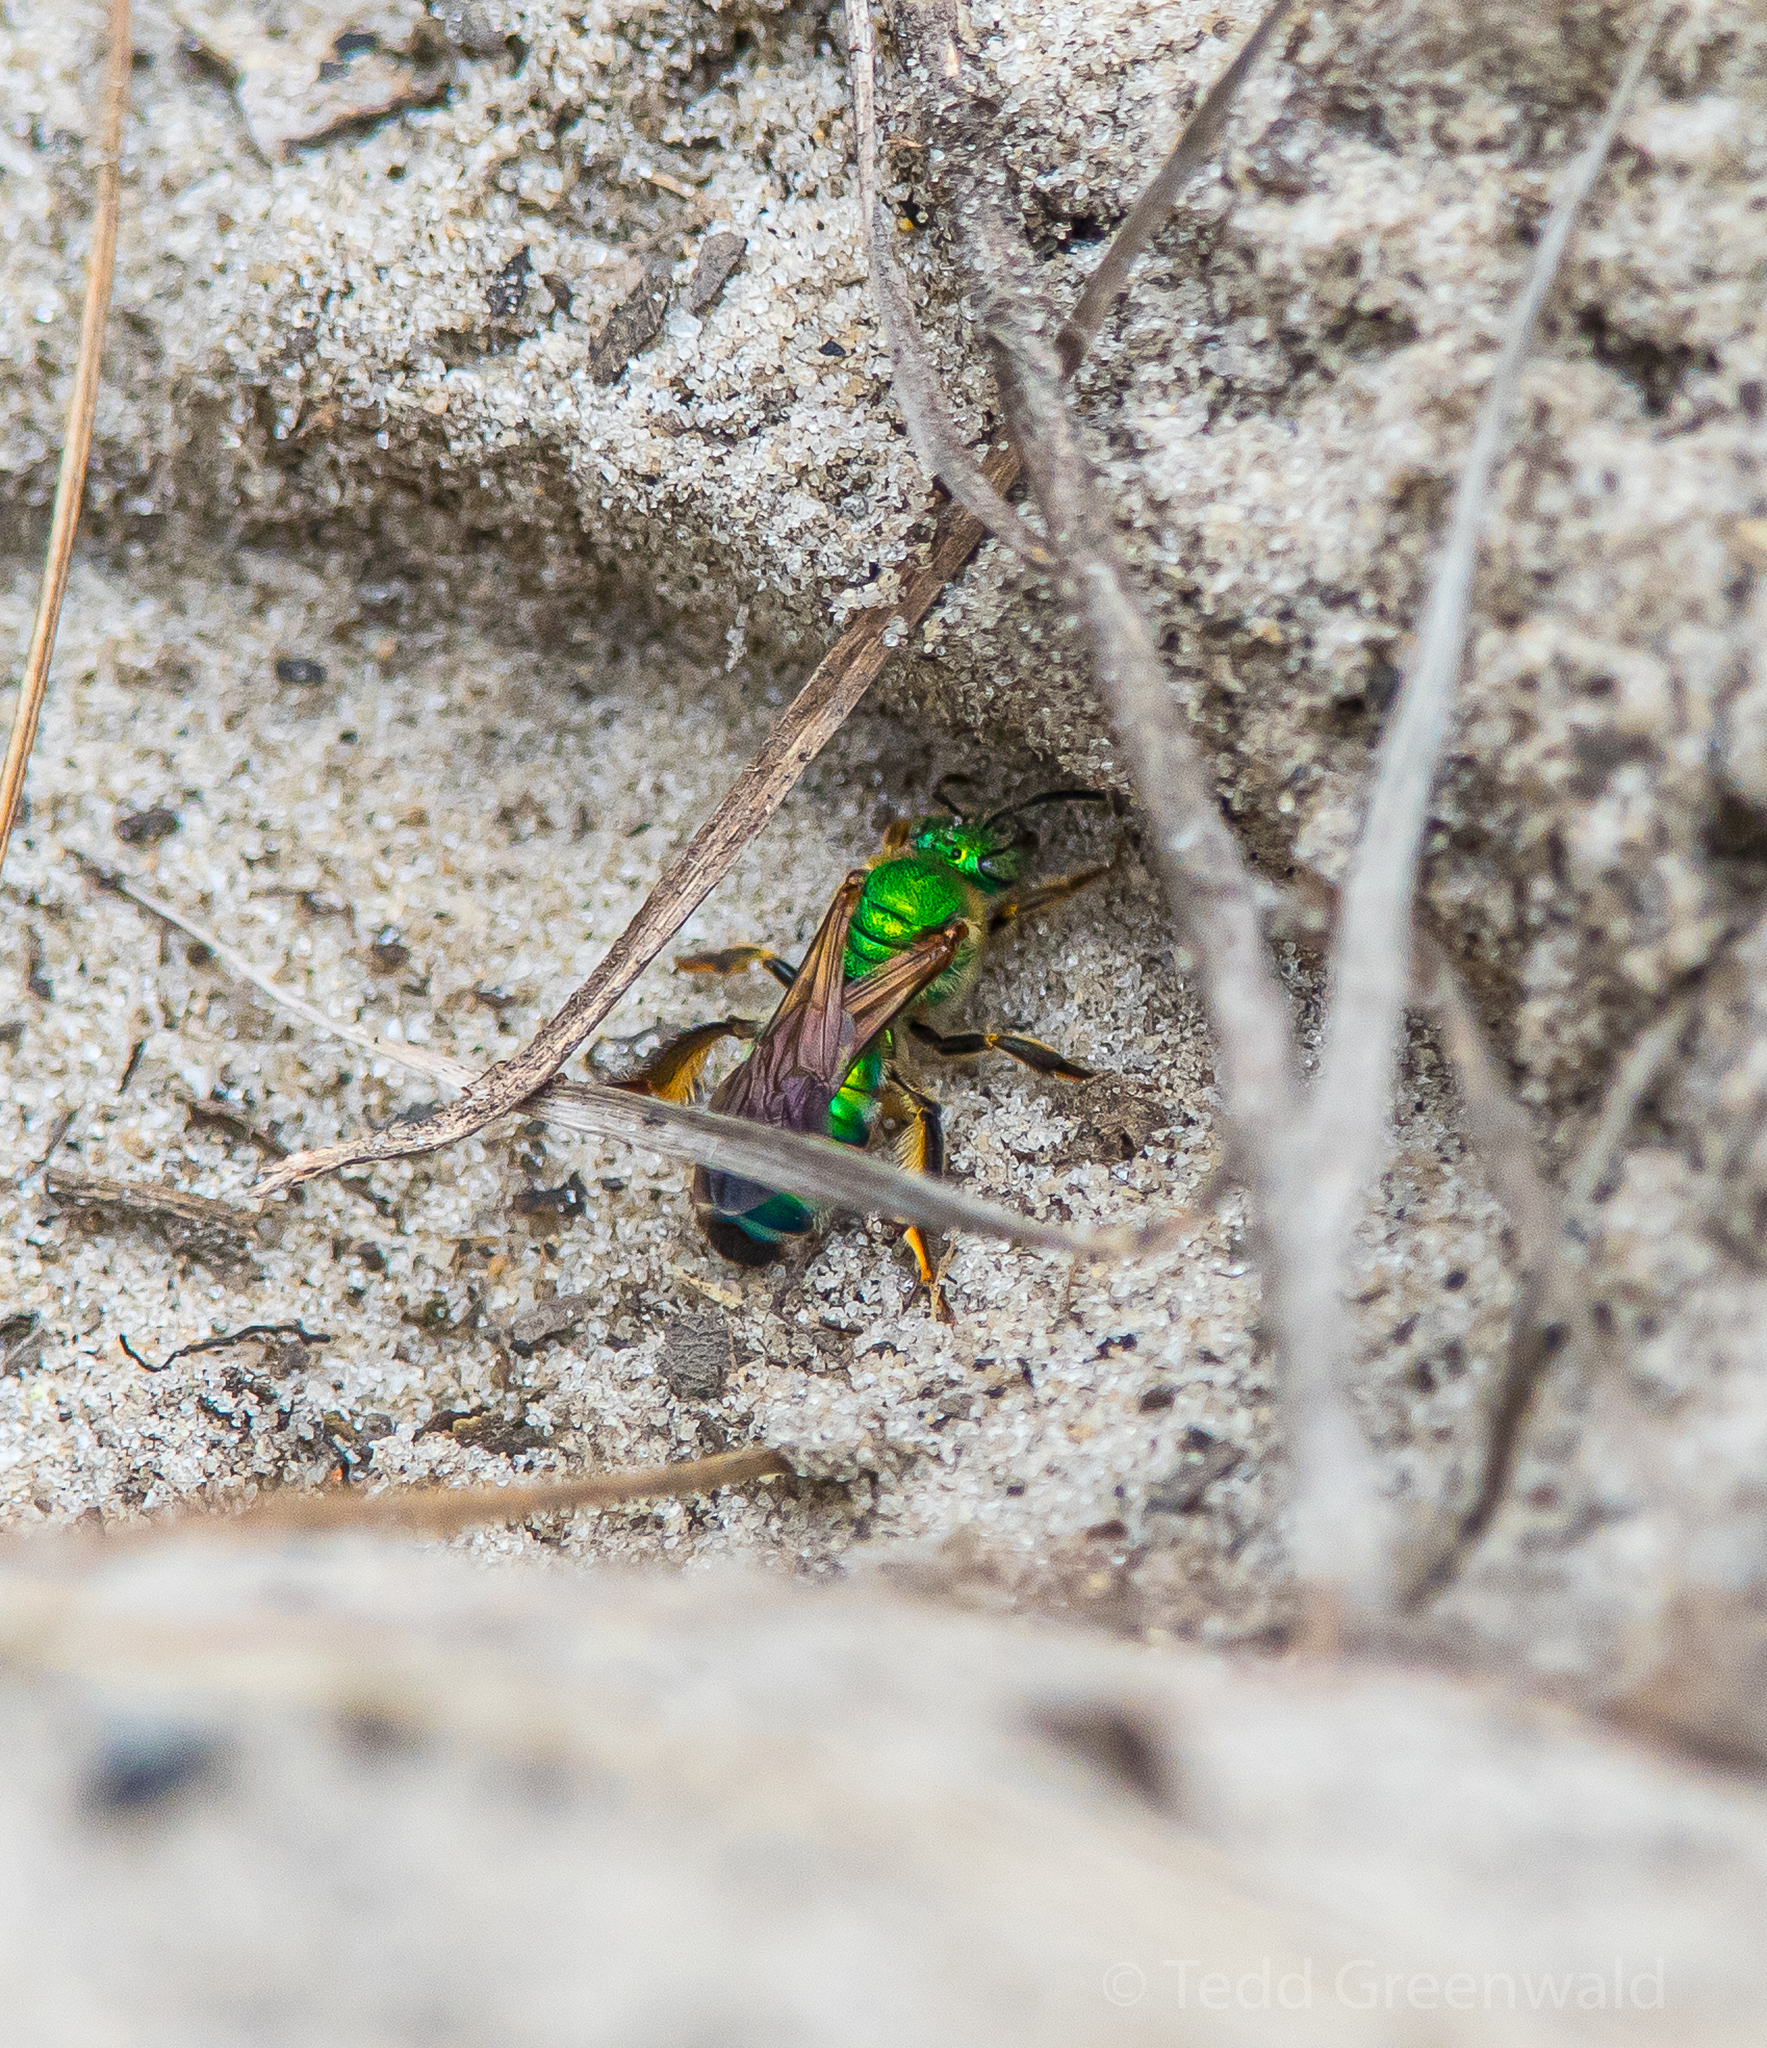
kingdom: Animalia
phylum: Arthropoda
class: Insecta
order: Hymenoptera
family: Halictidae
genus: Agapostemon
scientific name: Agapostemon splendens
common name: Brown-winged striped sweat bee
